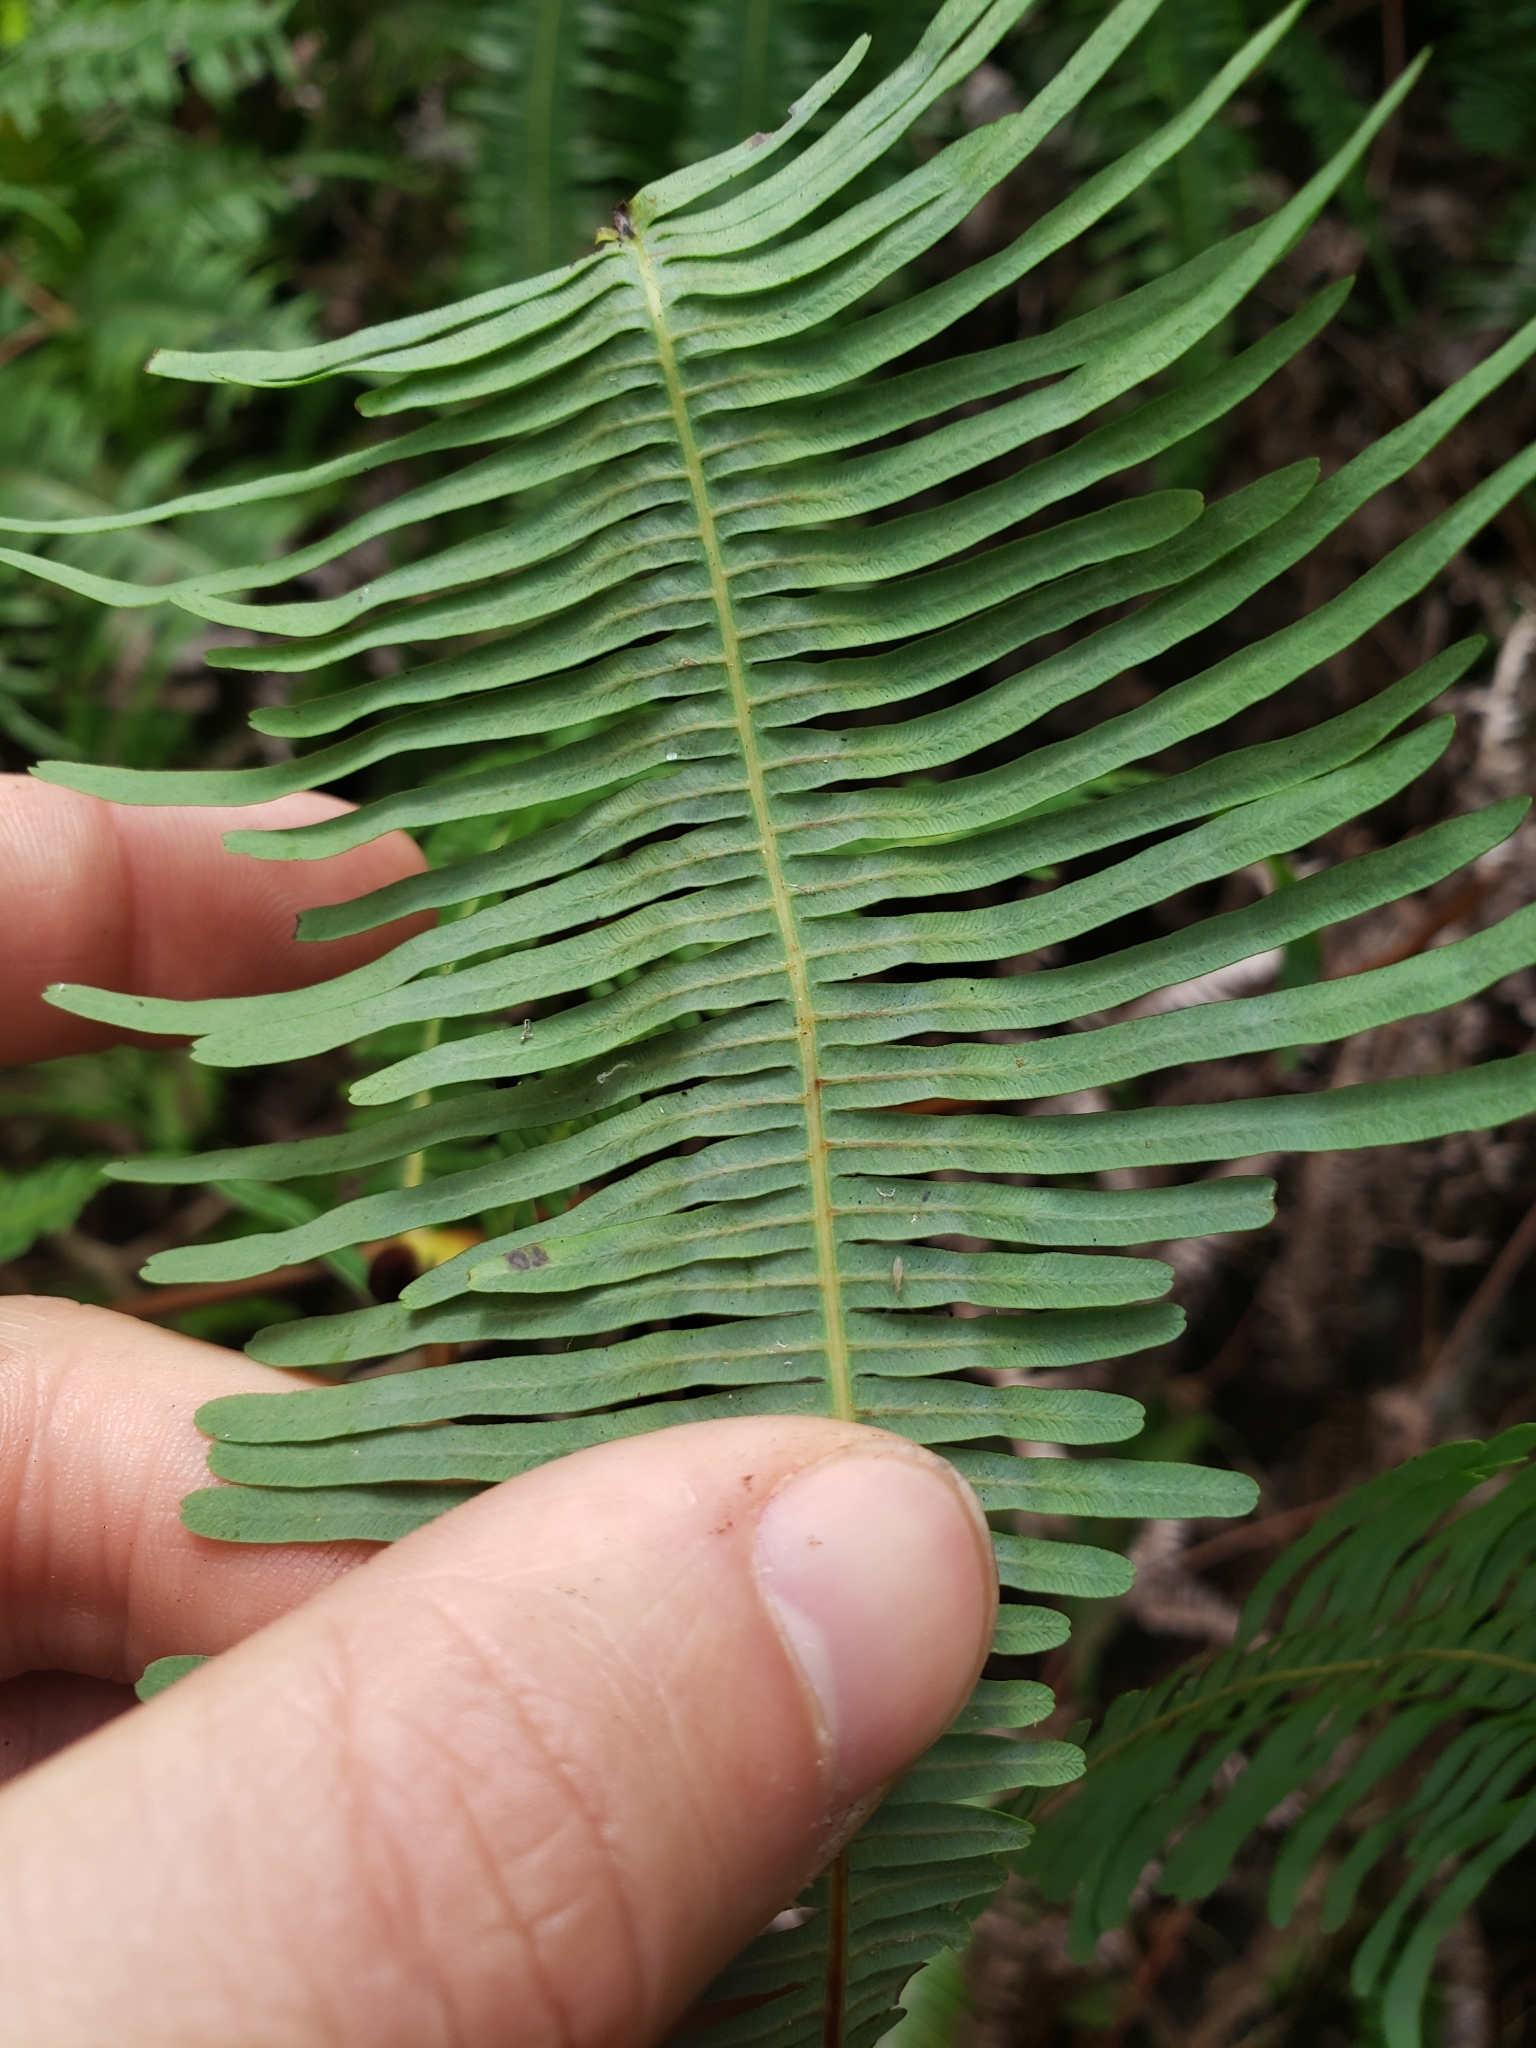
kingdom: Plantae
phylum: Tracheophyta
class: Polypodiopsida
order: Gleicheniales
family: Gleicheniaceae
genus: Dicranopteris
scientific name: Dicranopteris linearis
